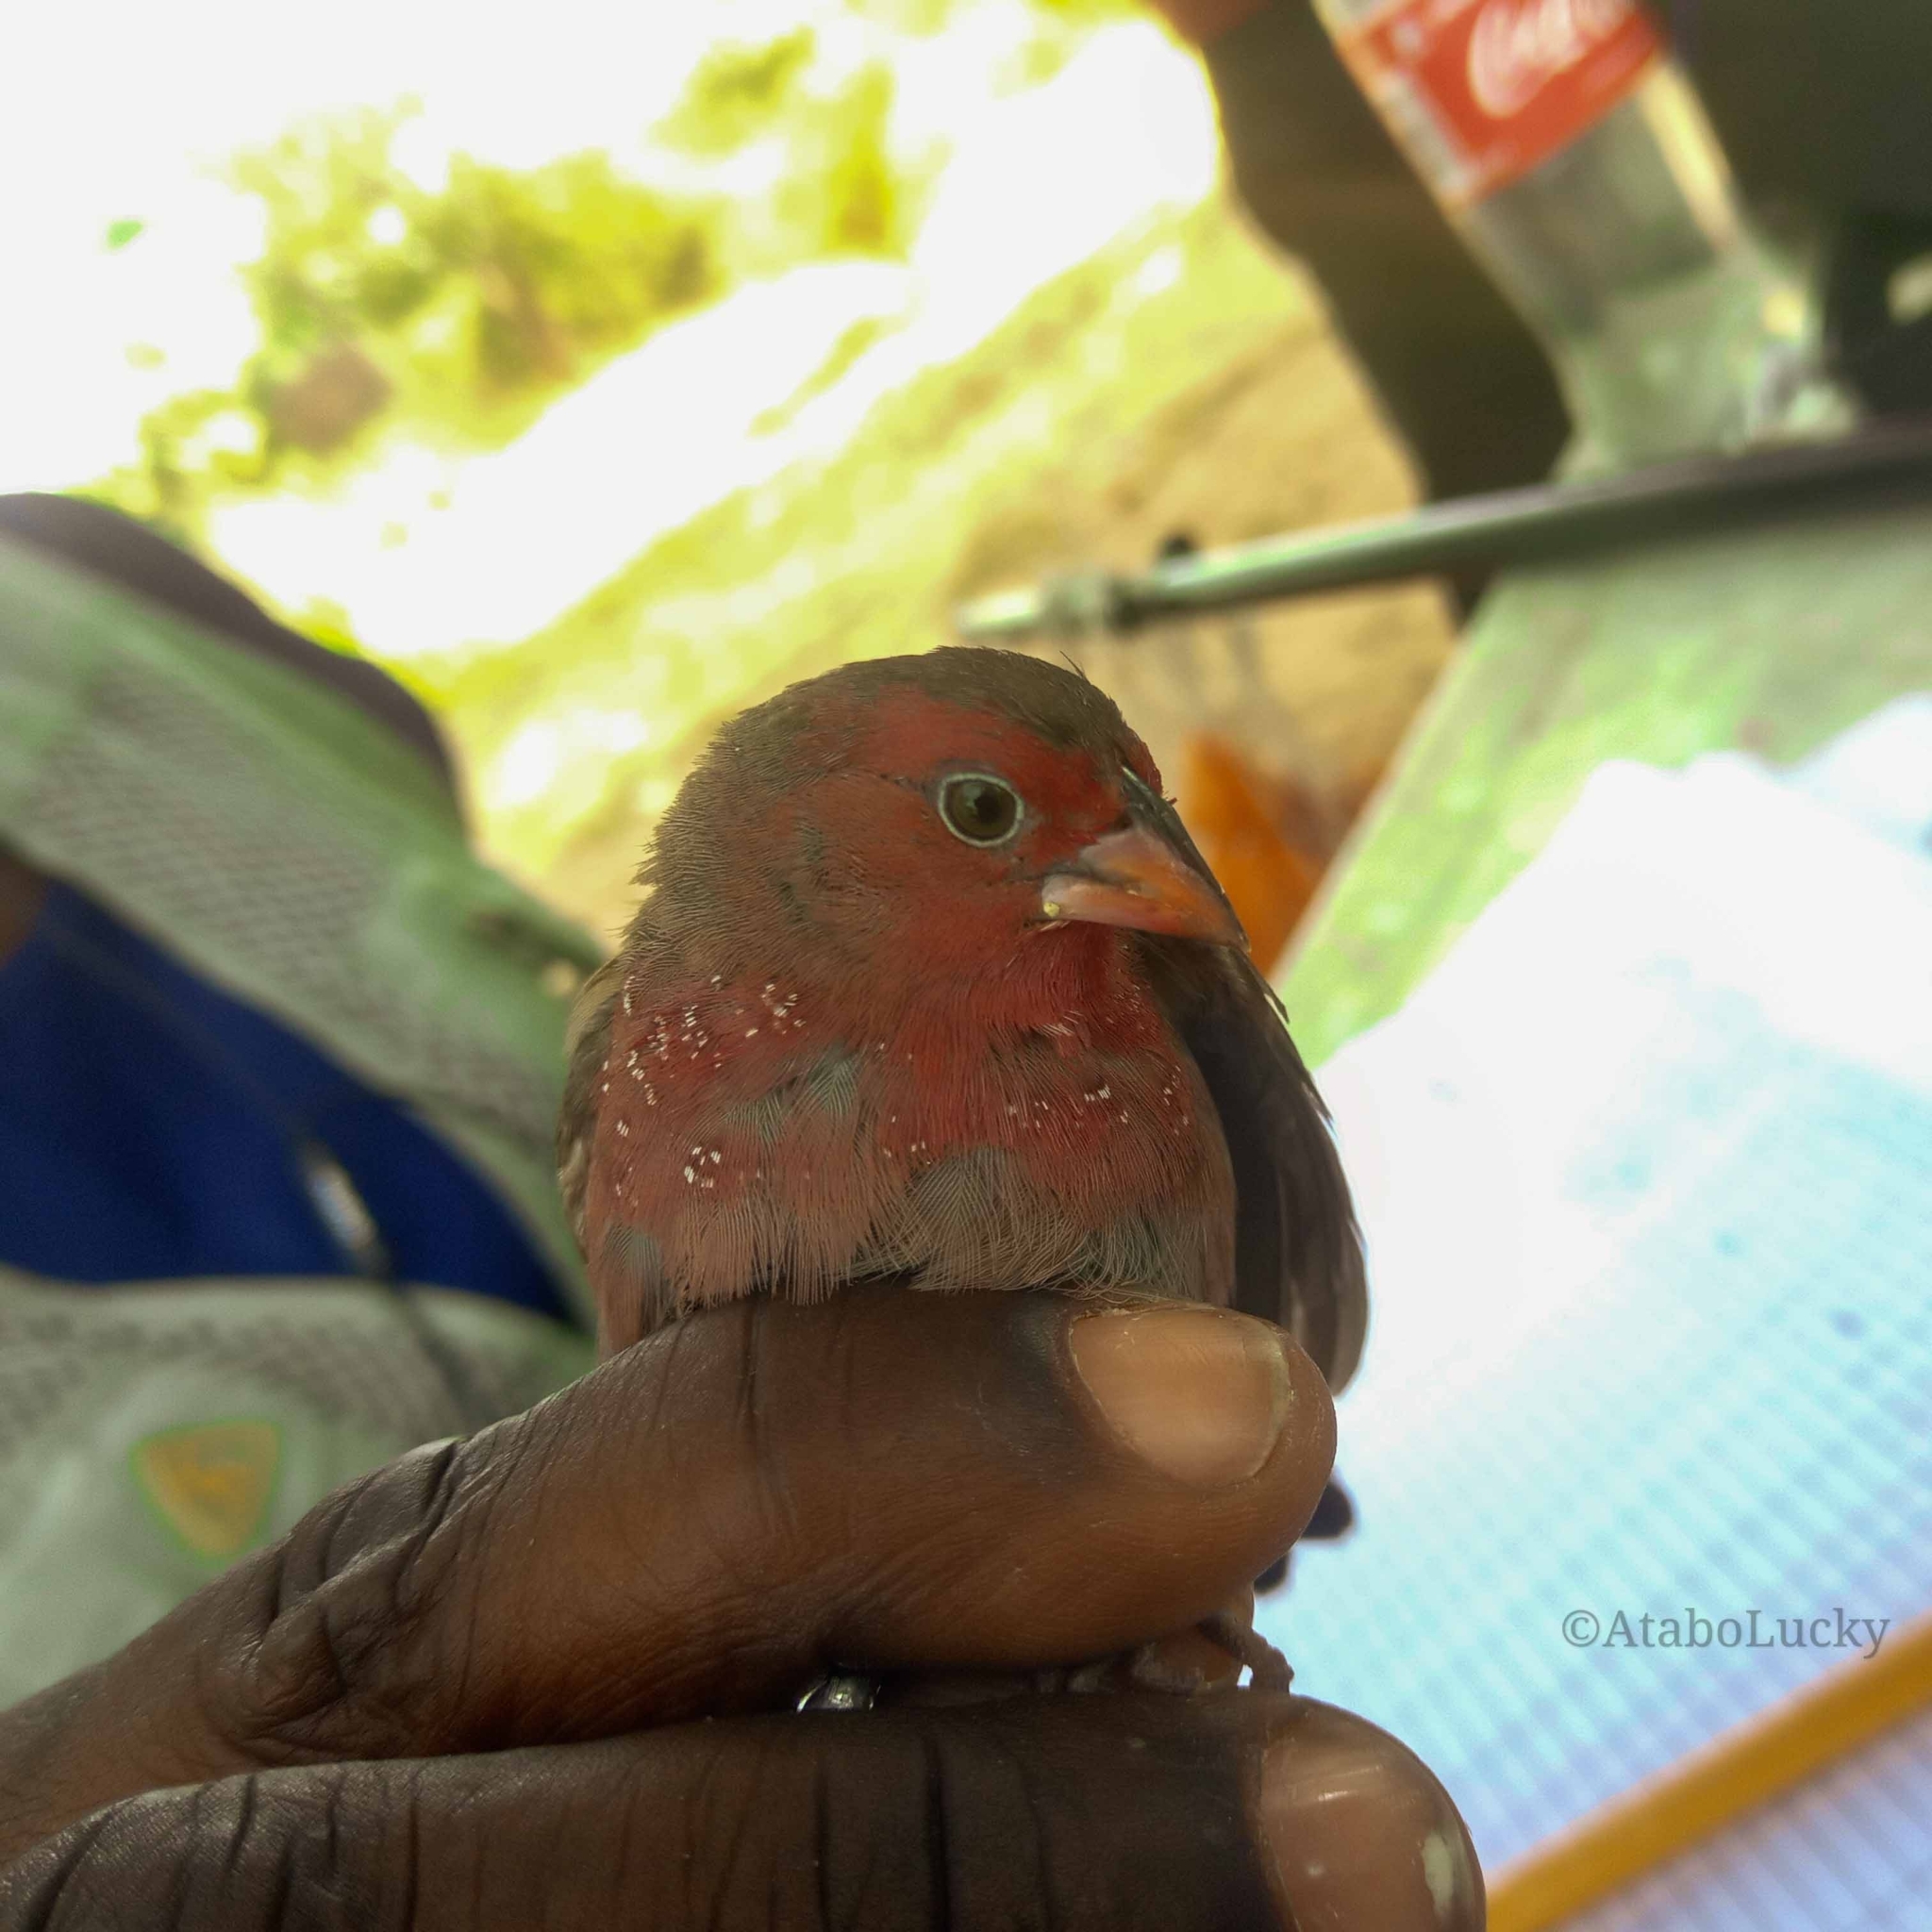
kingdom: Animalia
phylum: Chordata
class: Aves
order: Passeriformes
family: Estrildidae
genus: Lagonosticta
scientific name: Lagonosticta rufopicta
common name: Bar-breasted firefinch
